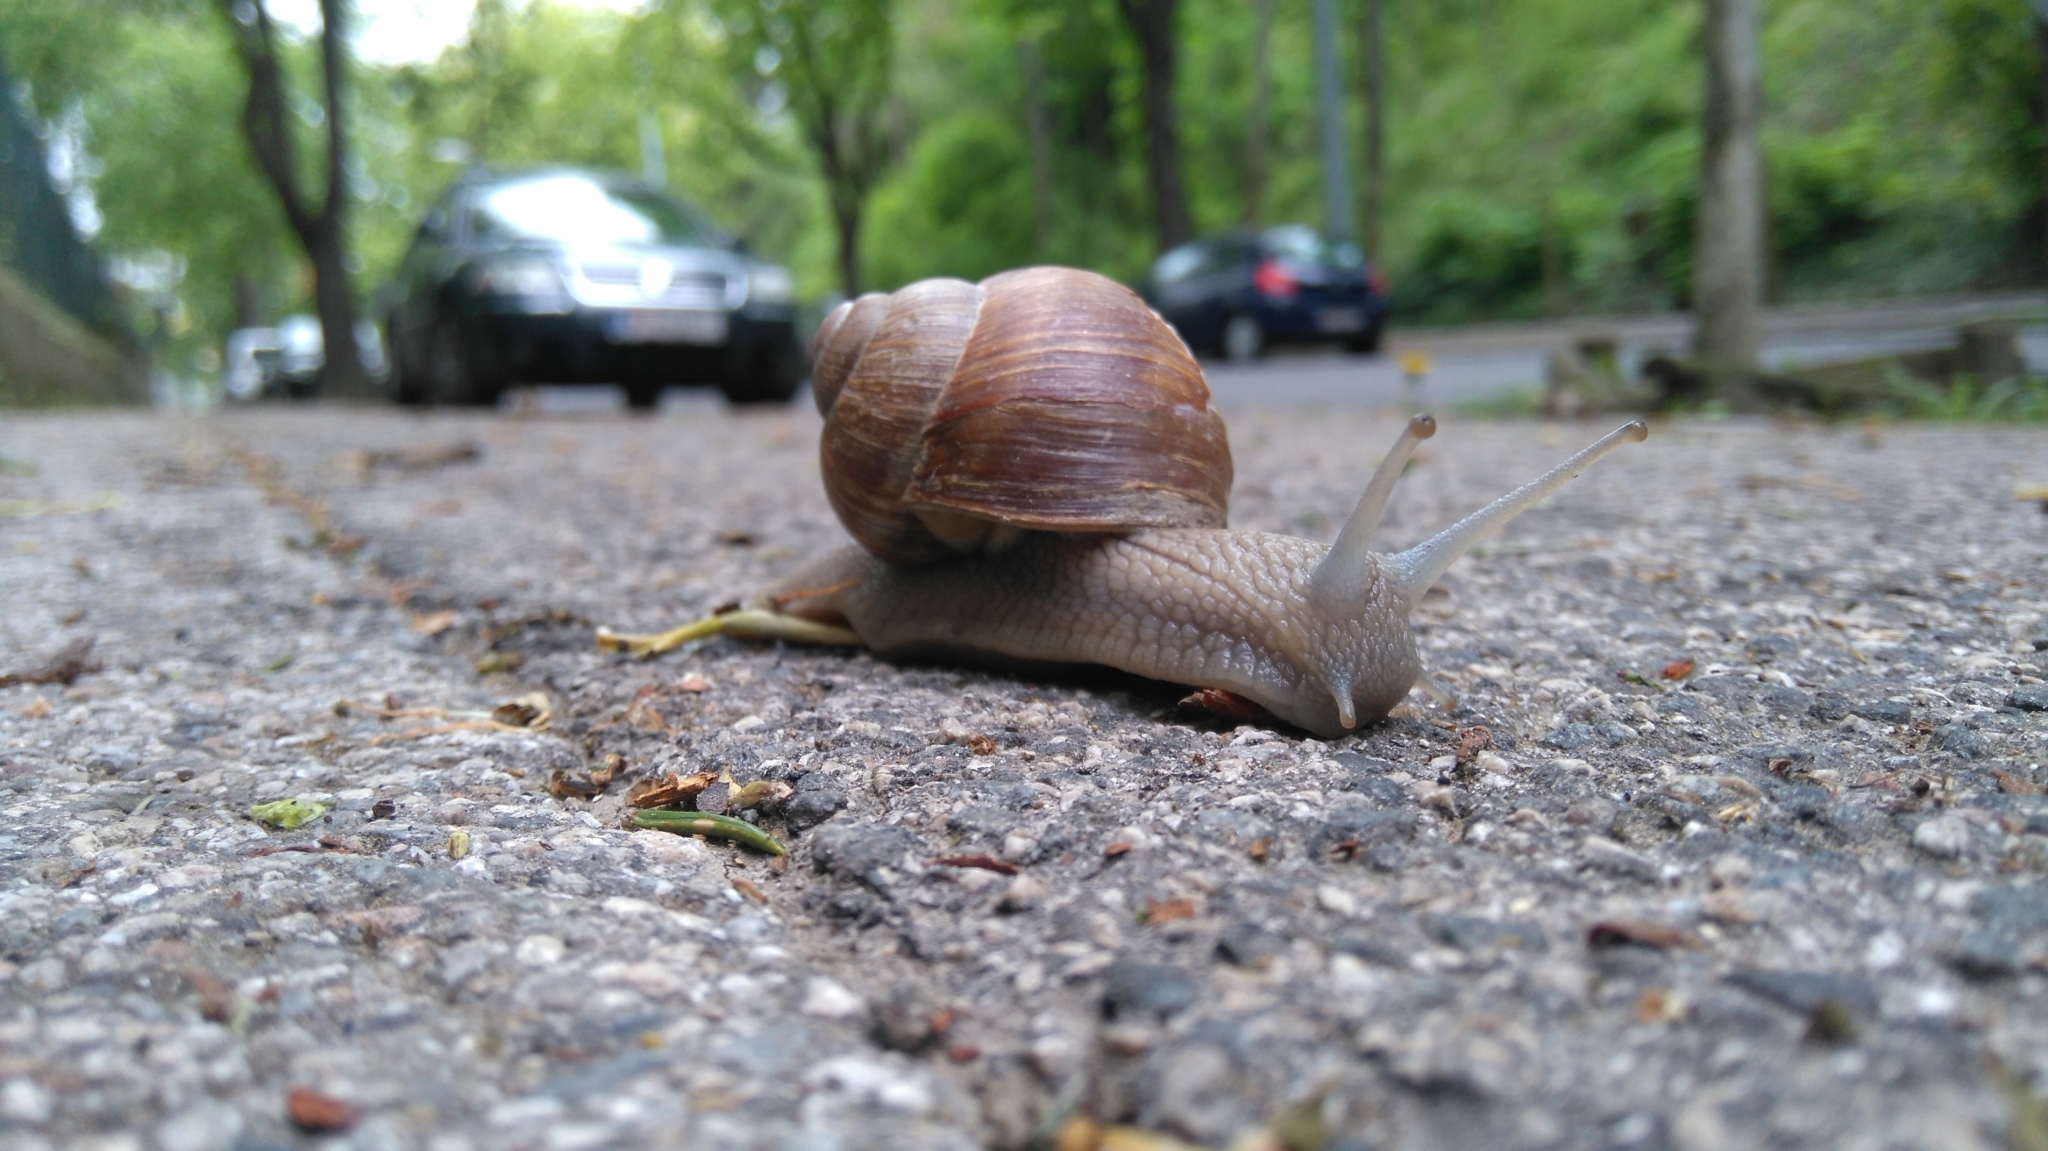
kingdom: Animalia
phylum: Mollusca
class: Gastropoda
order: Stylommatophora
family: Helicidae
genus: Helix
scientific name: Helix pomatia
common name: Roman snail
